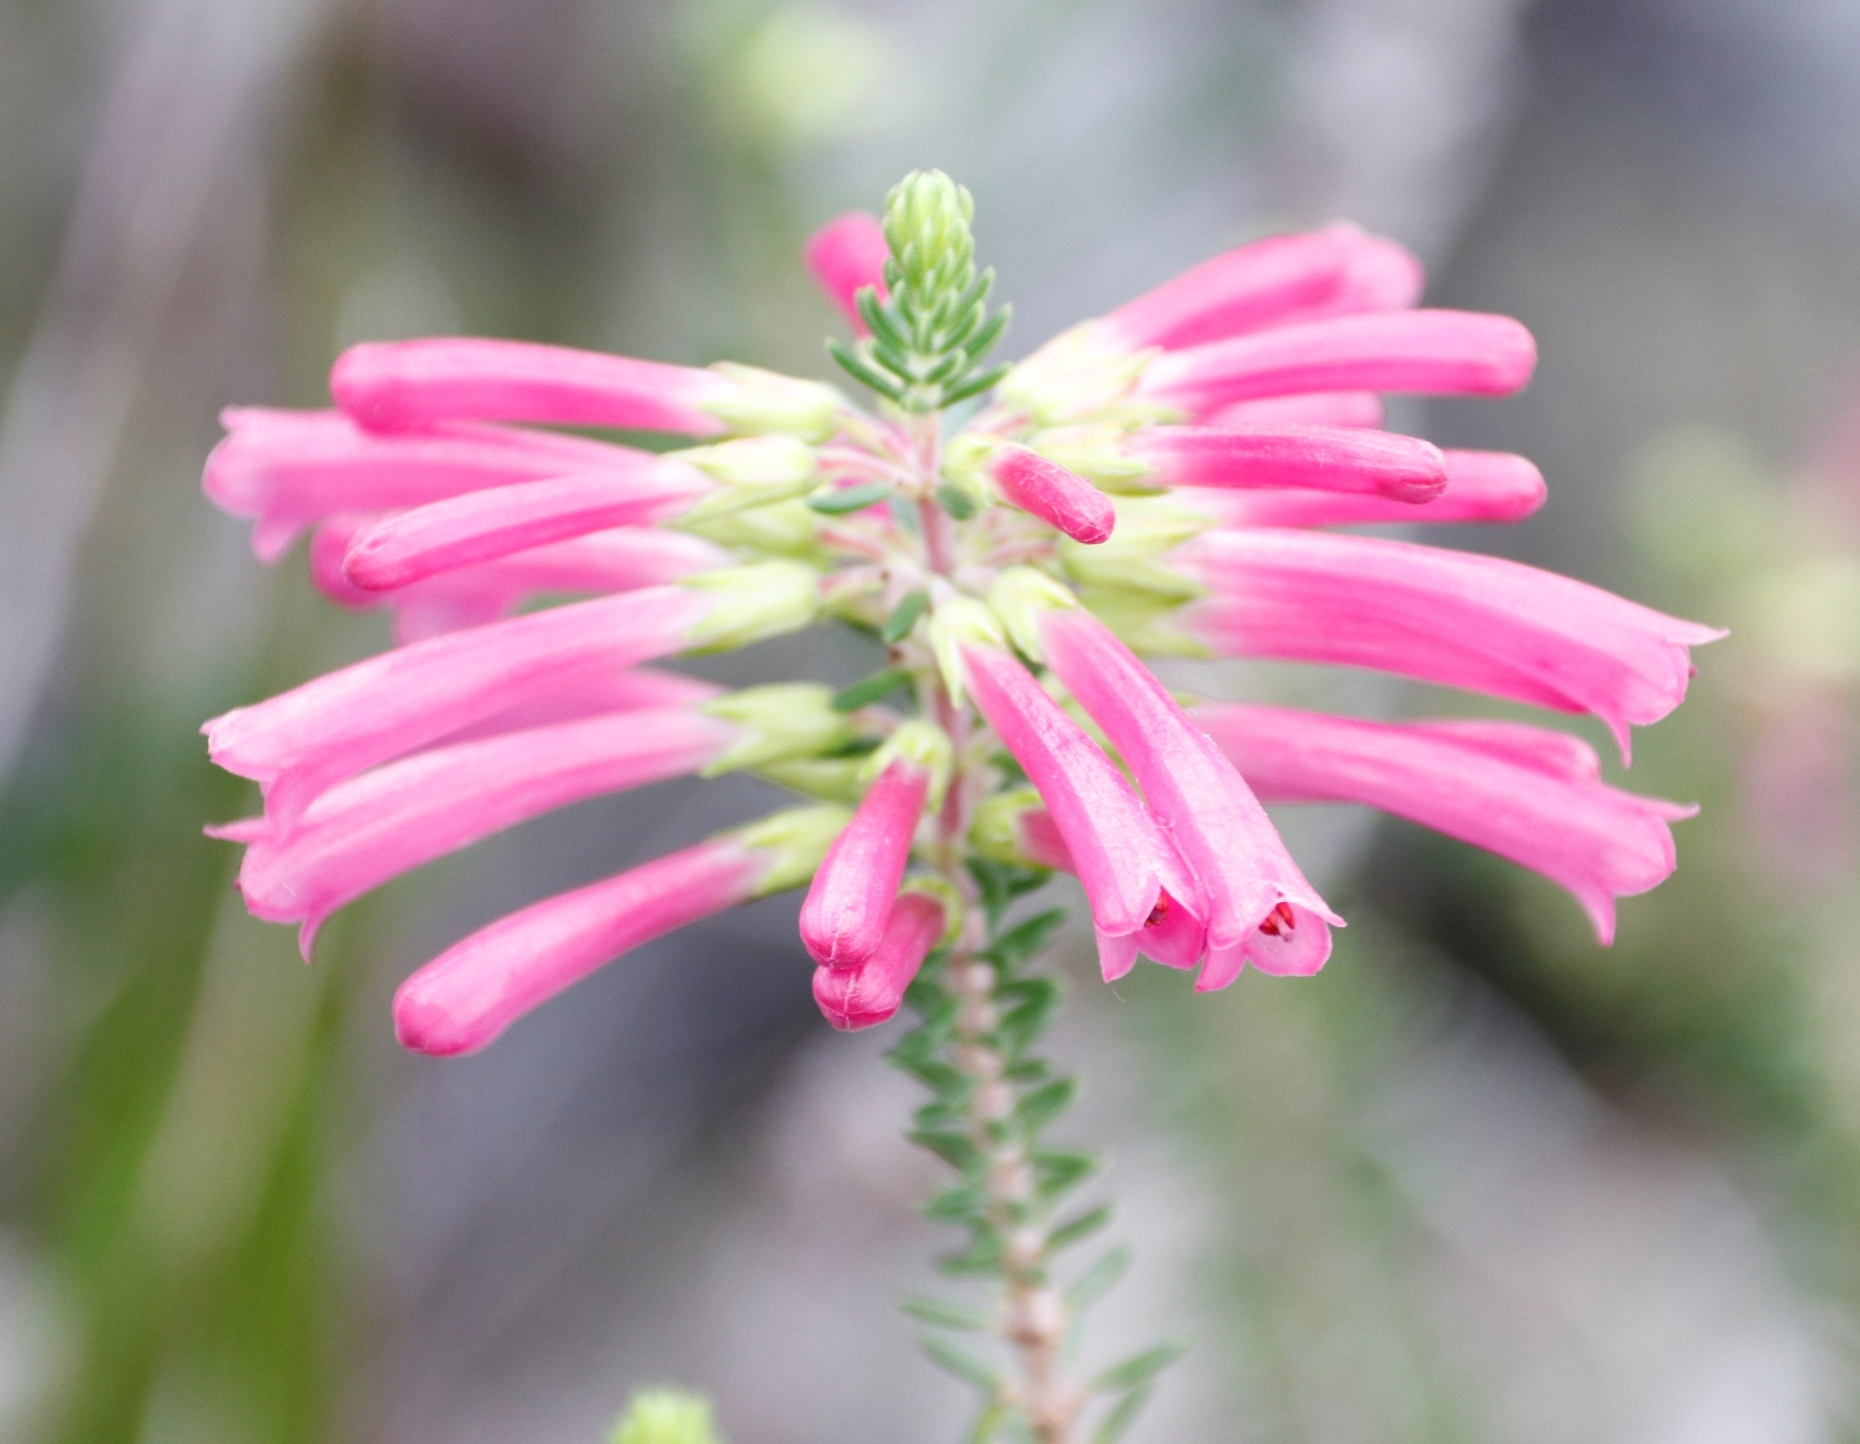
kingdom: Plantae
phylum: Tracheophyta
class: Magnoliopsida
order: Ericales
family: Ericaceae
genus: Erica
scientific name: Erica abietina
